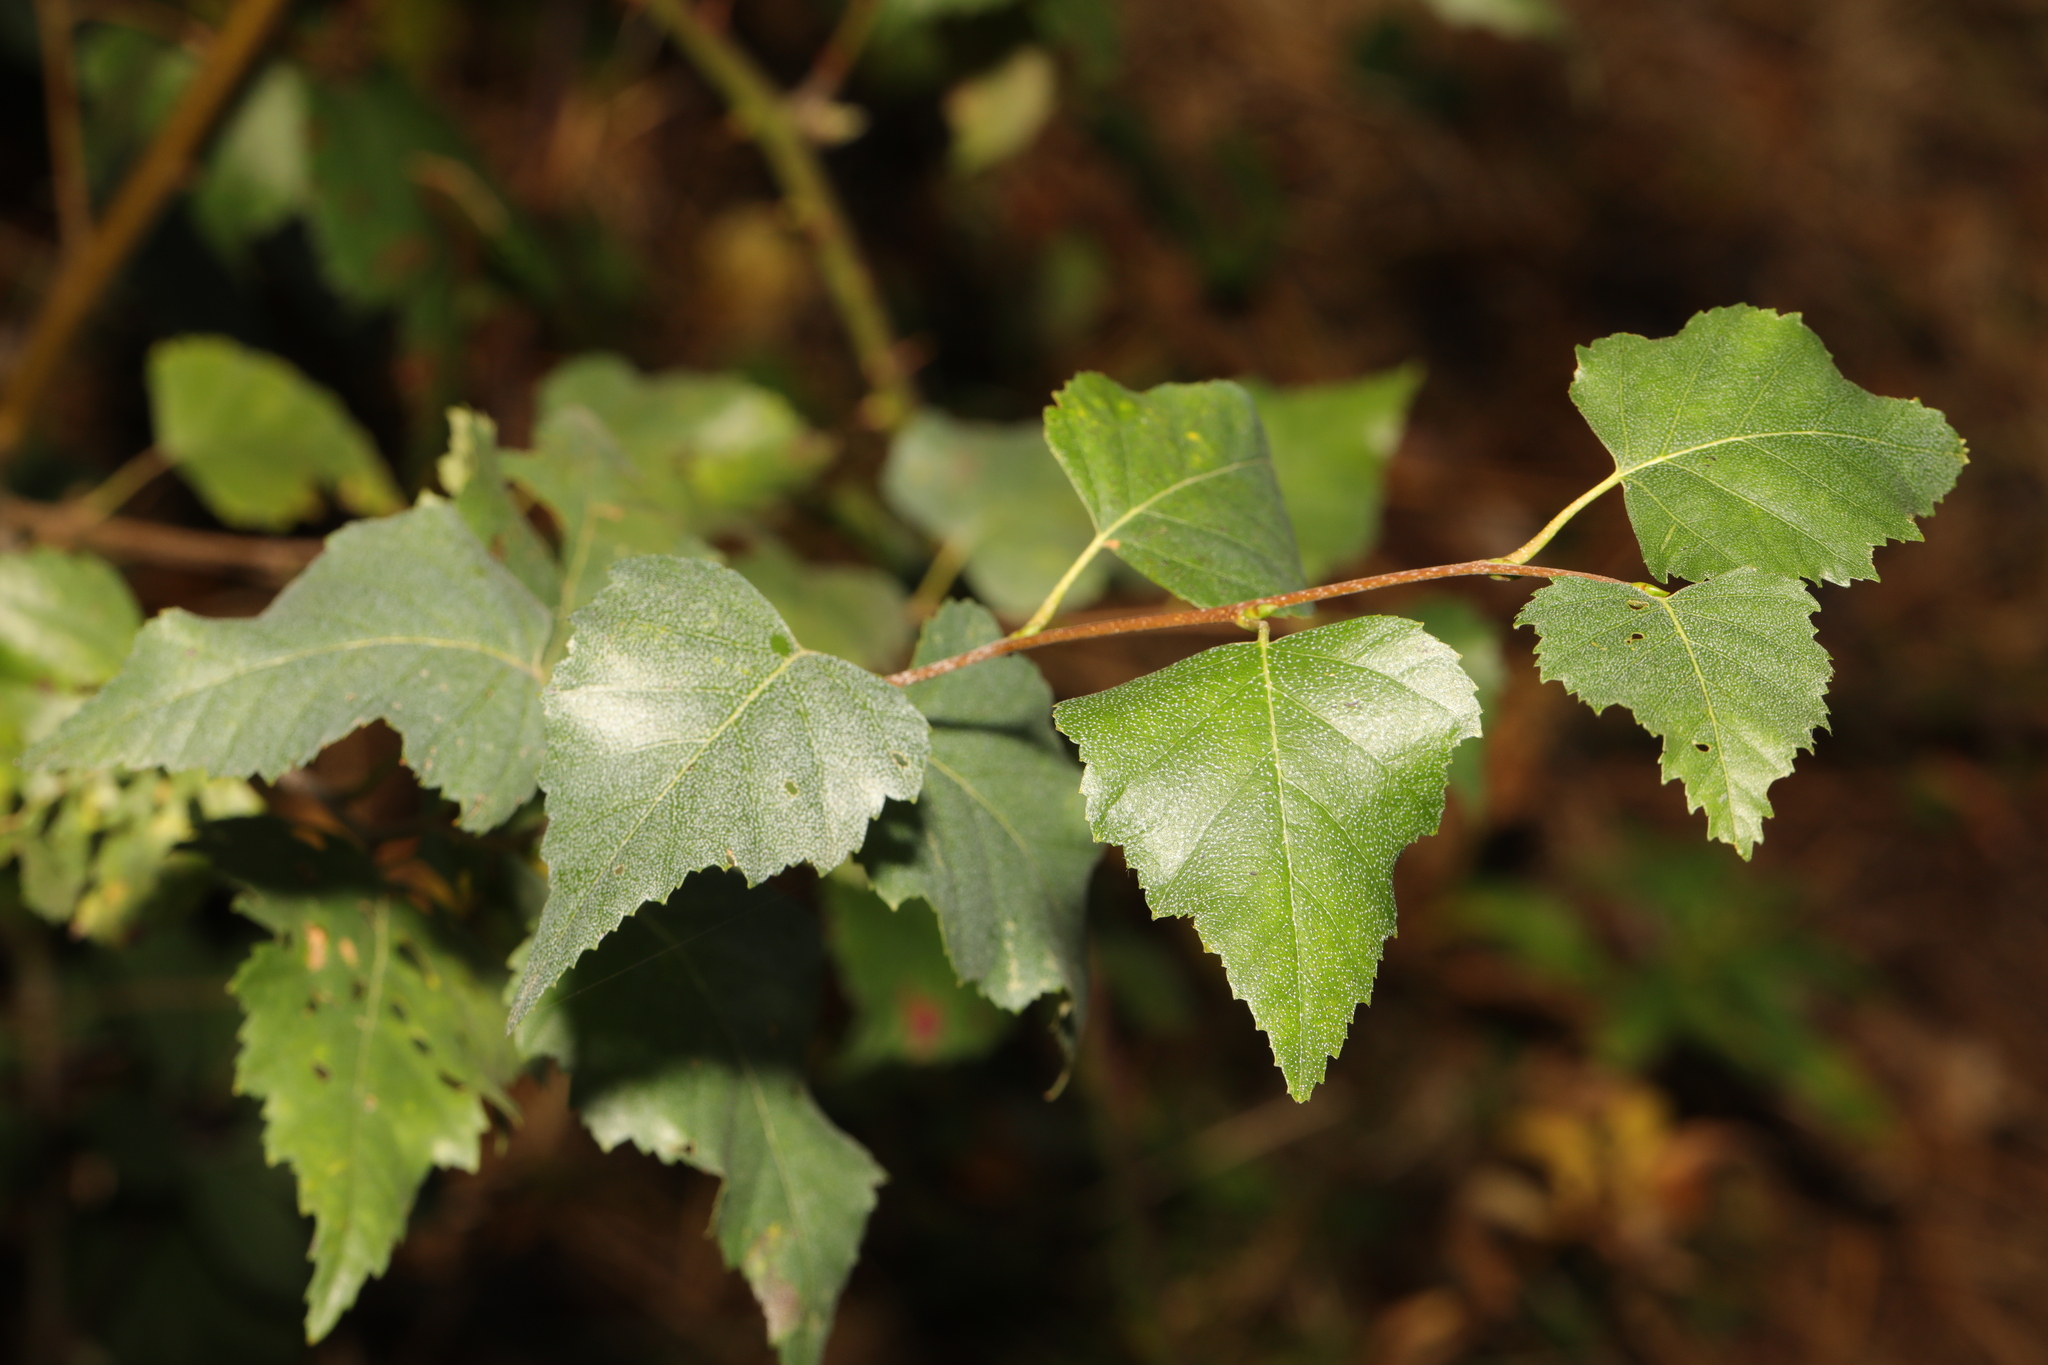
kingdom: Plantae
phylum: Tracheophyta
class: Magnoliopsida
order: Fagales
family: Betulaceae
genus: Betula
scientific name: Betula pendula
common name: Silver birch
